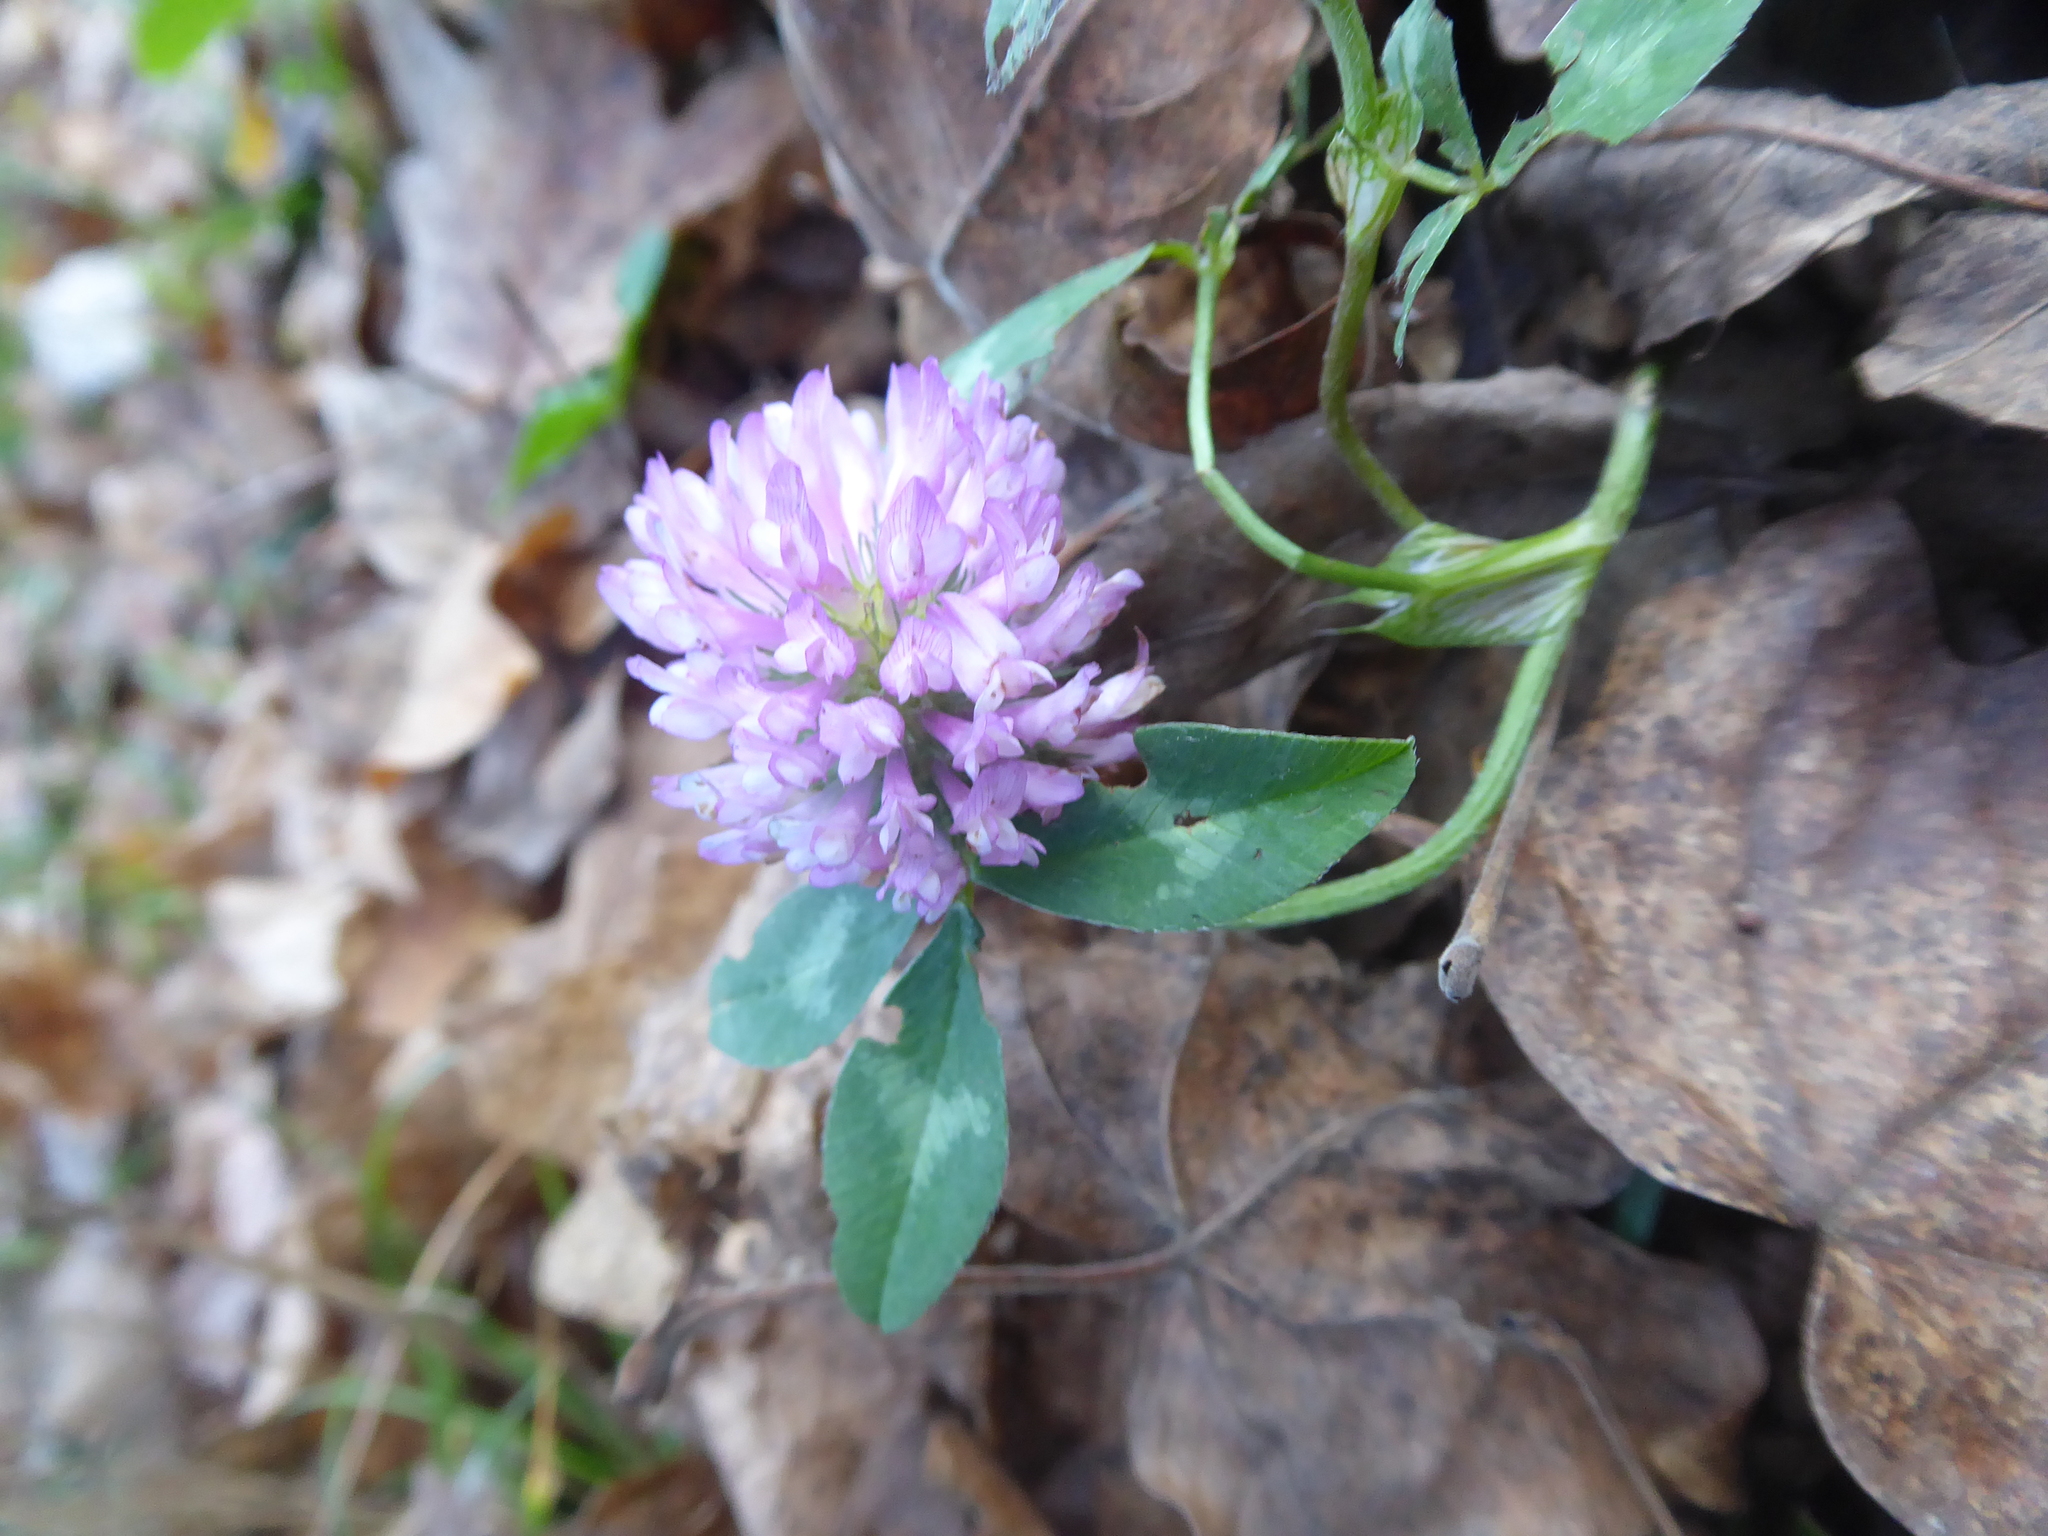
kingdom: Plantae
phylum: Tracheophyta
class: Magnoliopsida
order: Fabales
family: Fabaceae
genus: Trifolium
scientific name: Trifolium pratense
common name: Red clover
